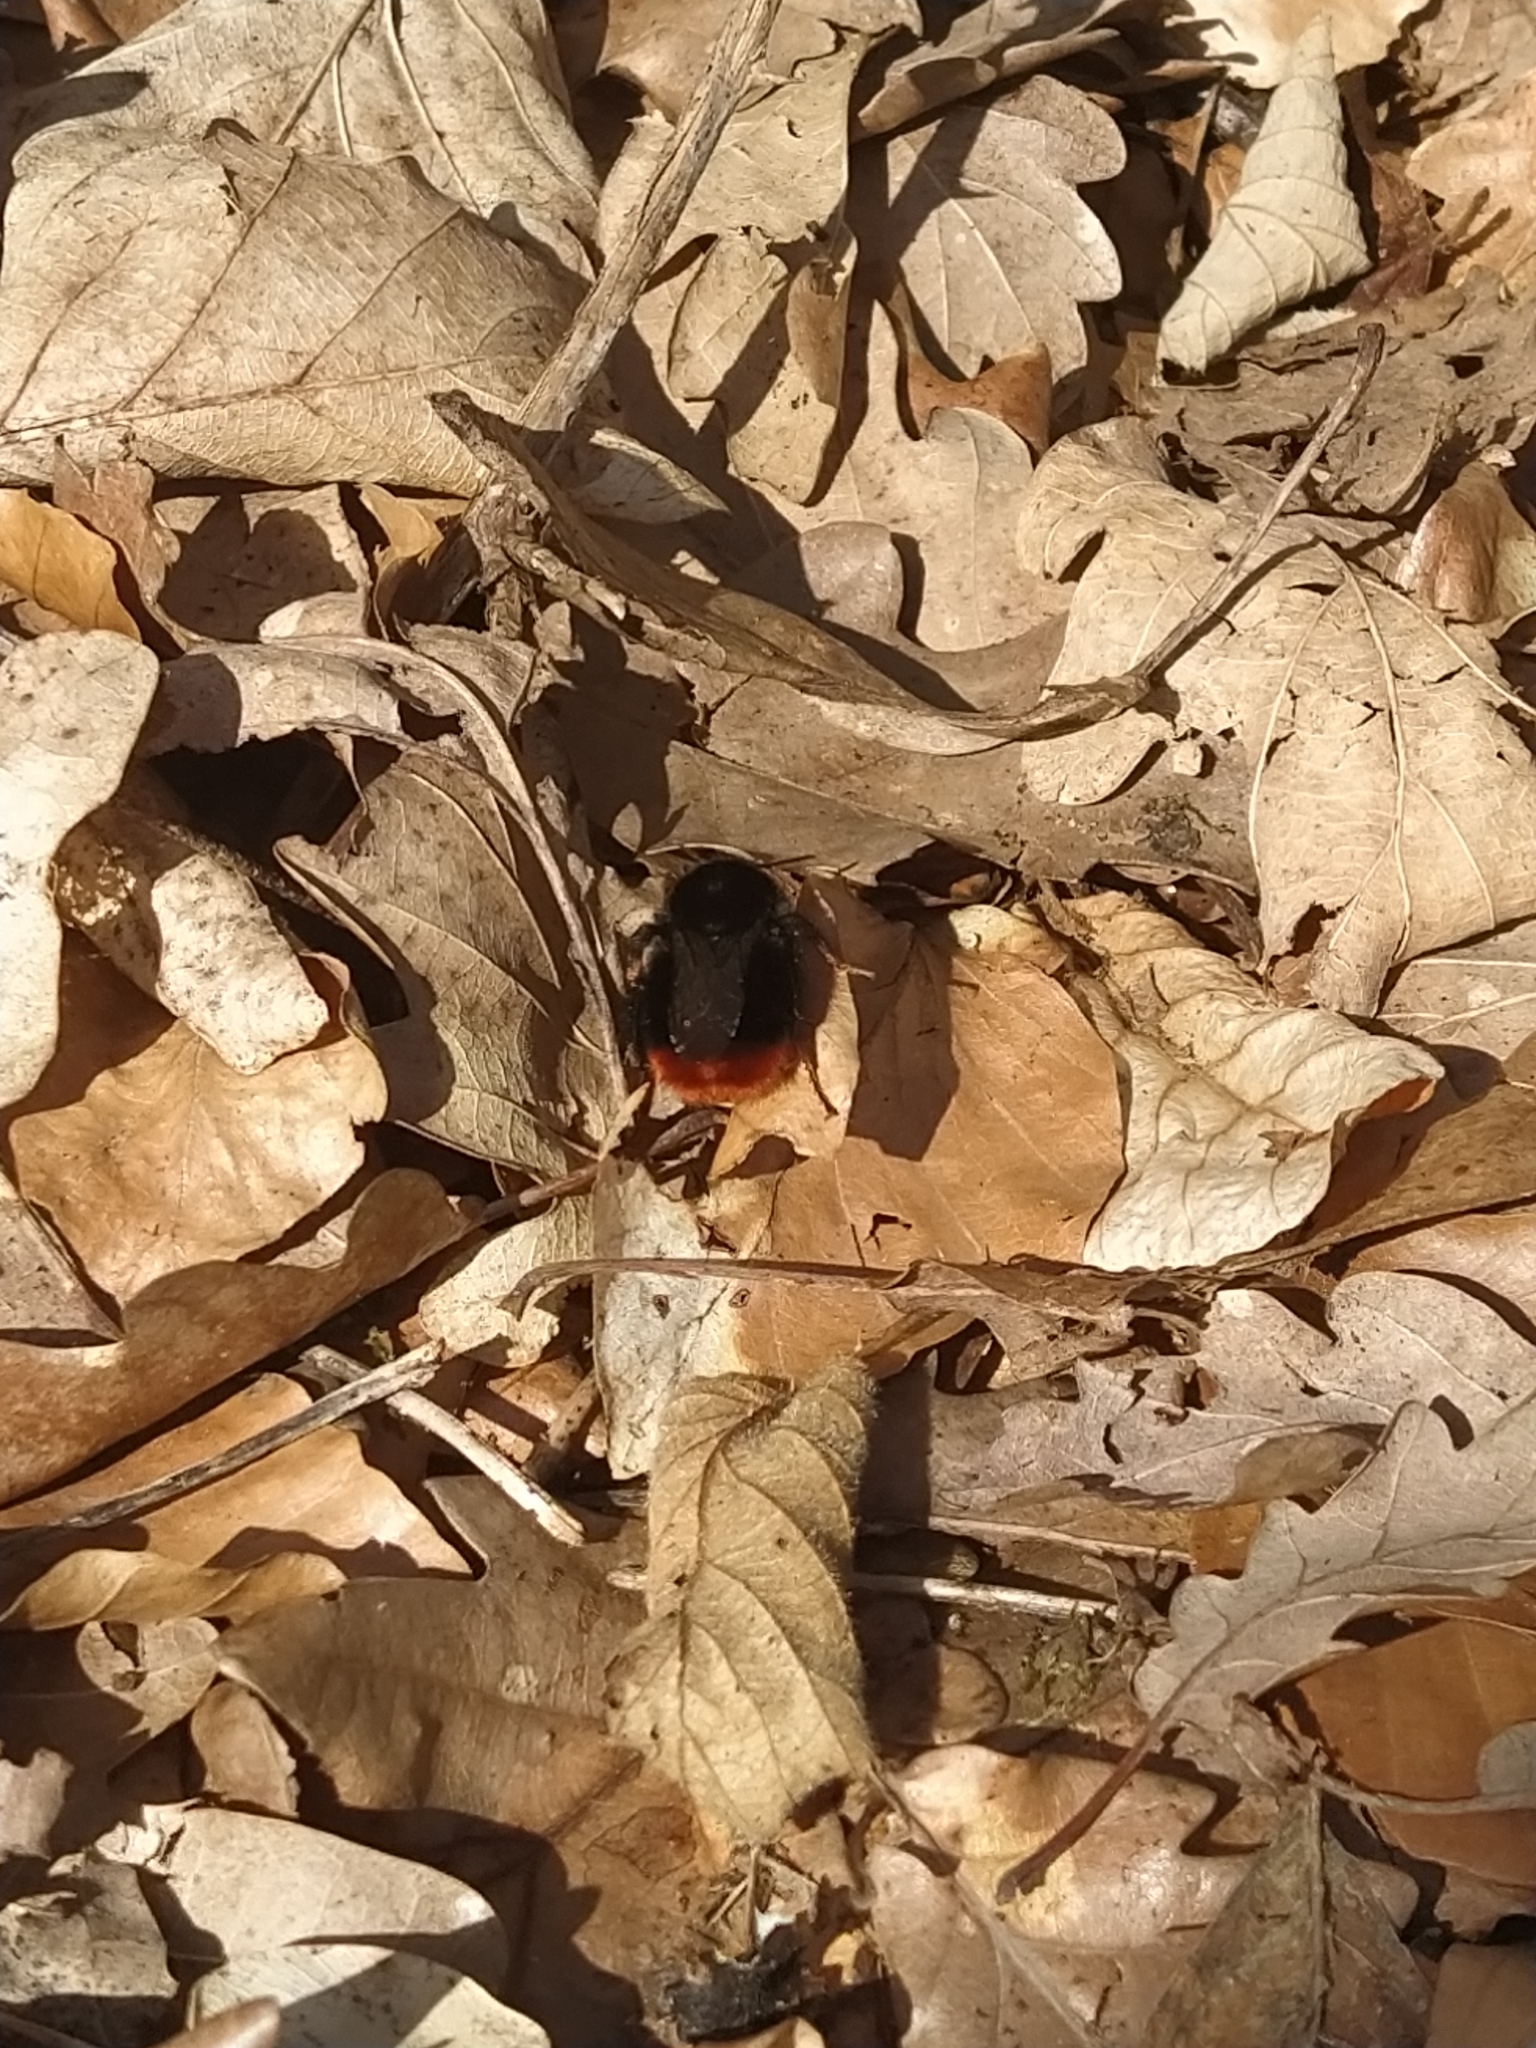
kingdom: Animalia
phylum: Arthropoda
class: Insecta
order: Hymenoptera
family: Apidae
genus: Bombus
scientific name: Bombus lapidarius
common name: Large red-tailed humble-bee
